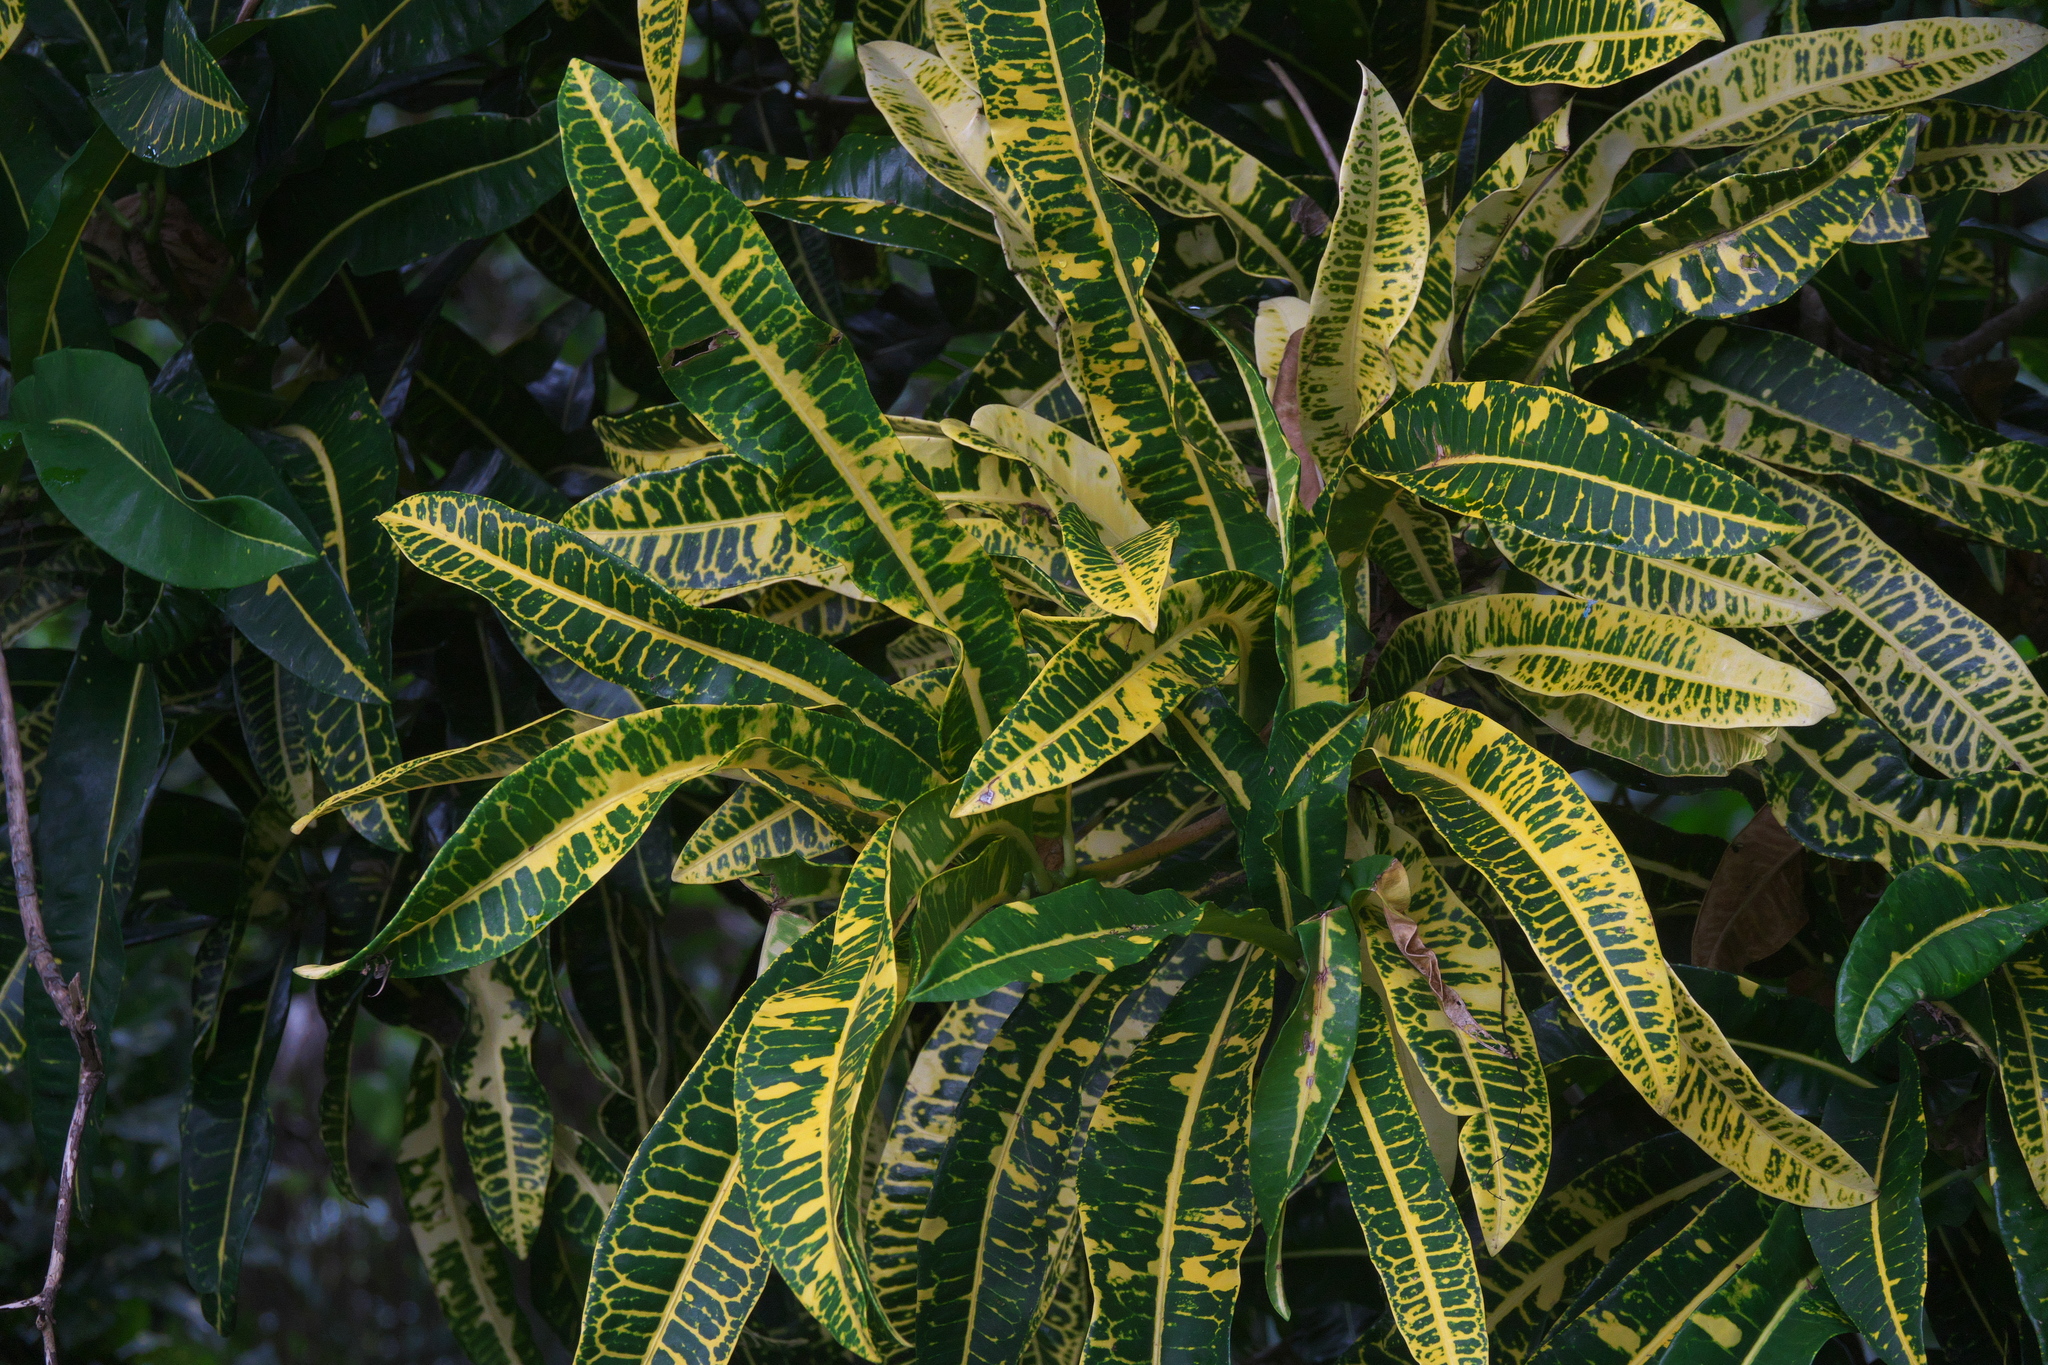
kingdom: Plantae
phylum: Tracheophyta
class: Magnoliopsida
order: Malpighiales
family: Euphorbiaceae
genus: Codiaeum
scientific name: Codiaeum variegatum
